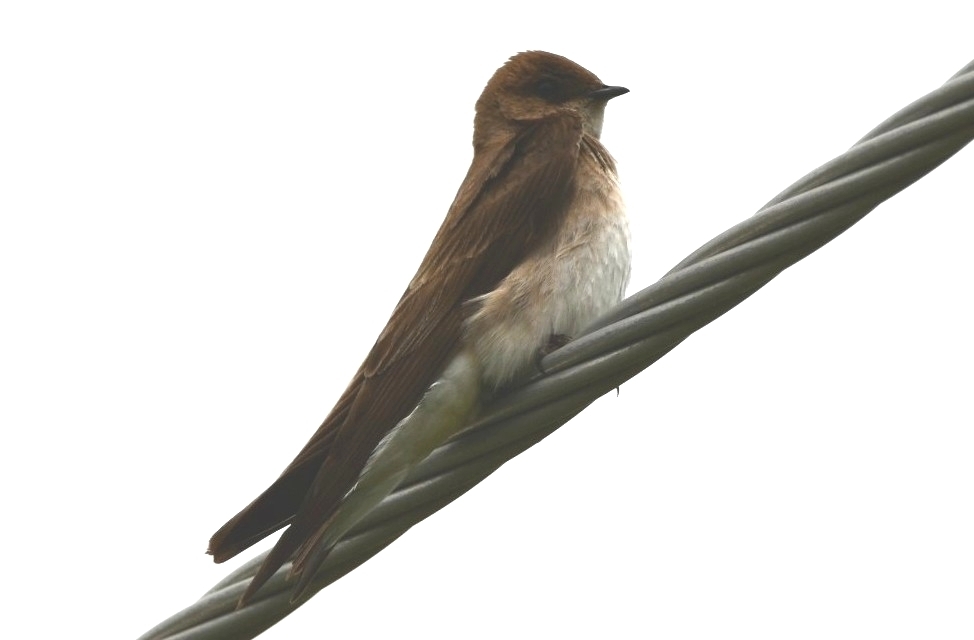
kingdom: Animalia
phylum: Chordata
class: Aves
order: Passeriformes
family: Hirundinidae
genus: Stelgidopteryx
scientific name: Stelgidopteryx serripennis
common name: Northern rough-winged swallow
